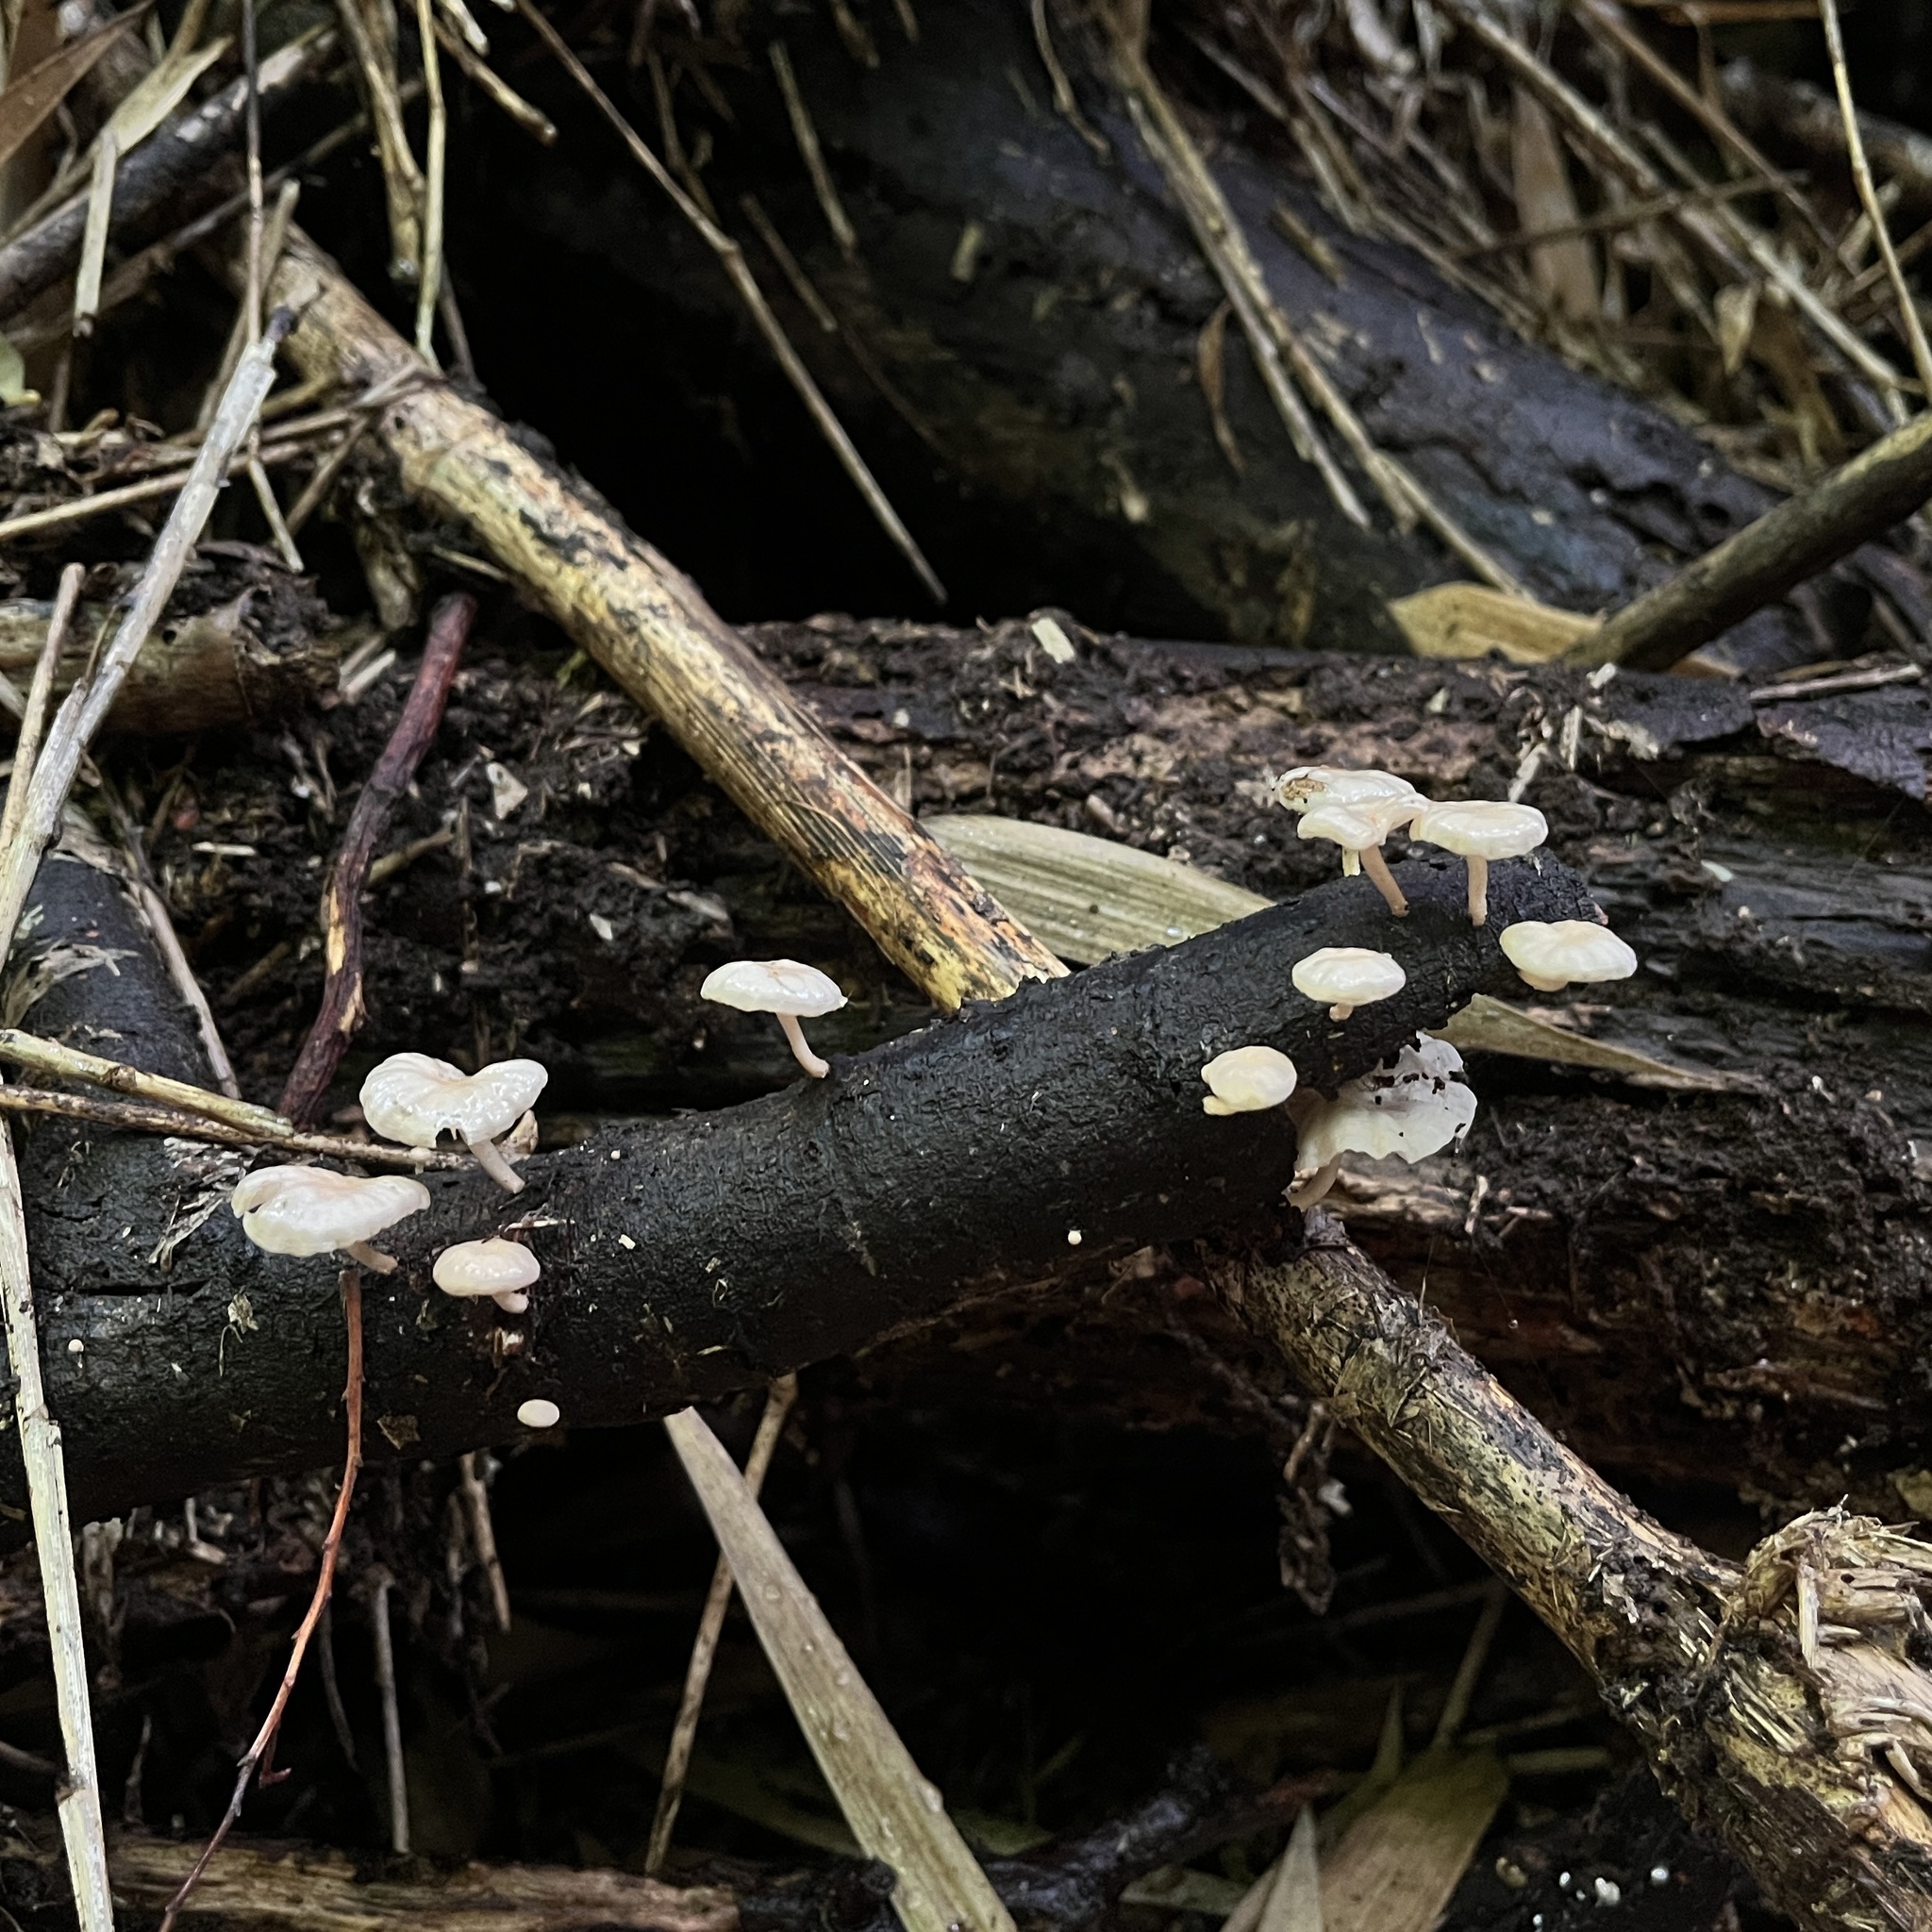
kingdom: Fungi
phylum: Basidiomycota
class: Agaricomycetes
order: Agaricales
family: Omphalotaceae
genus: Marasmiellus
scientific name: Marasmiellus alliiodorus
